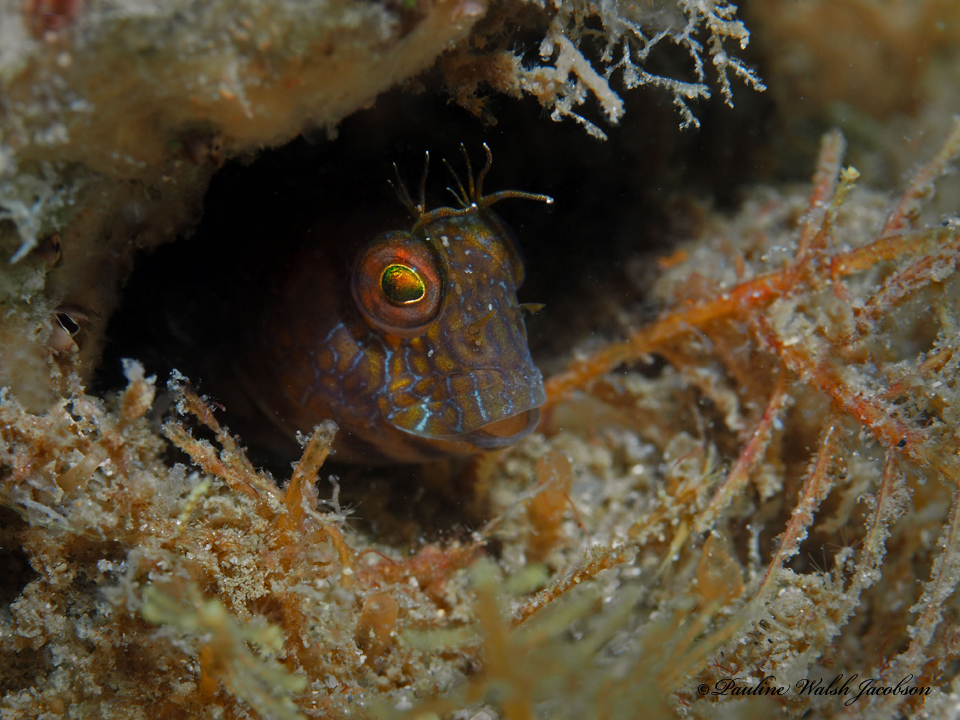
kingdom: Animalia
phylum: Chordata
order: Perciformes
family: Blenniidae
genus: Parablennius
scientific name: Parablennius marmoreus
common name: Seaweed blenny
